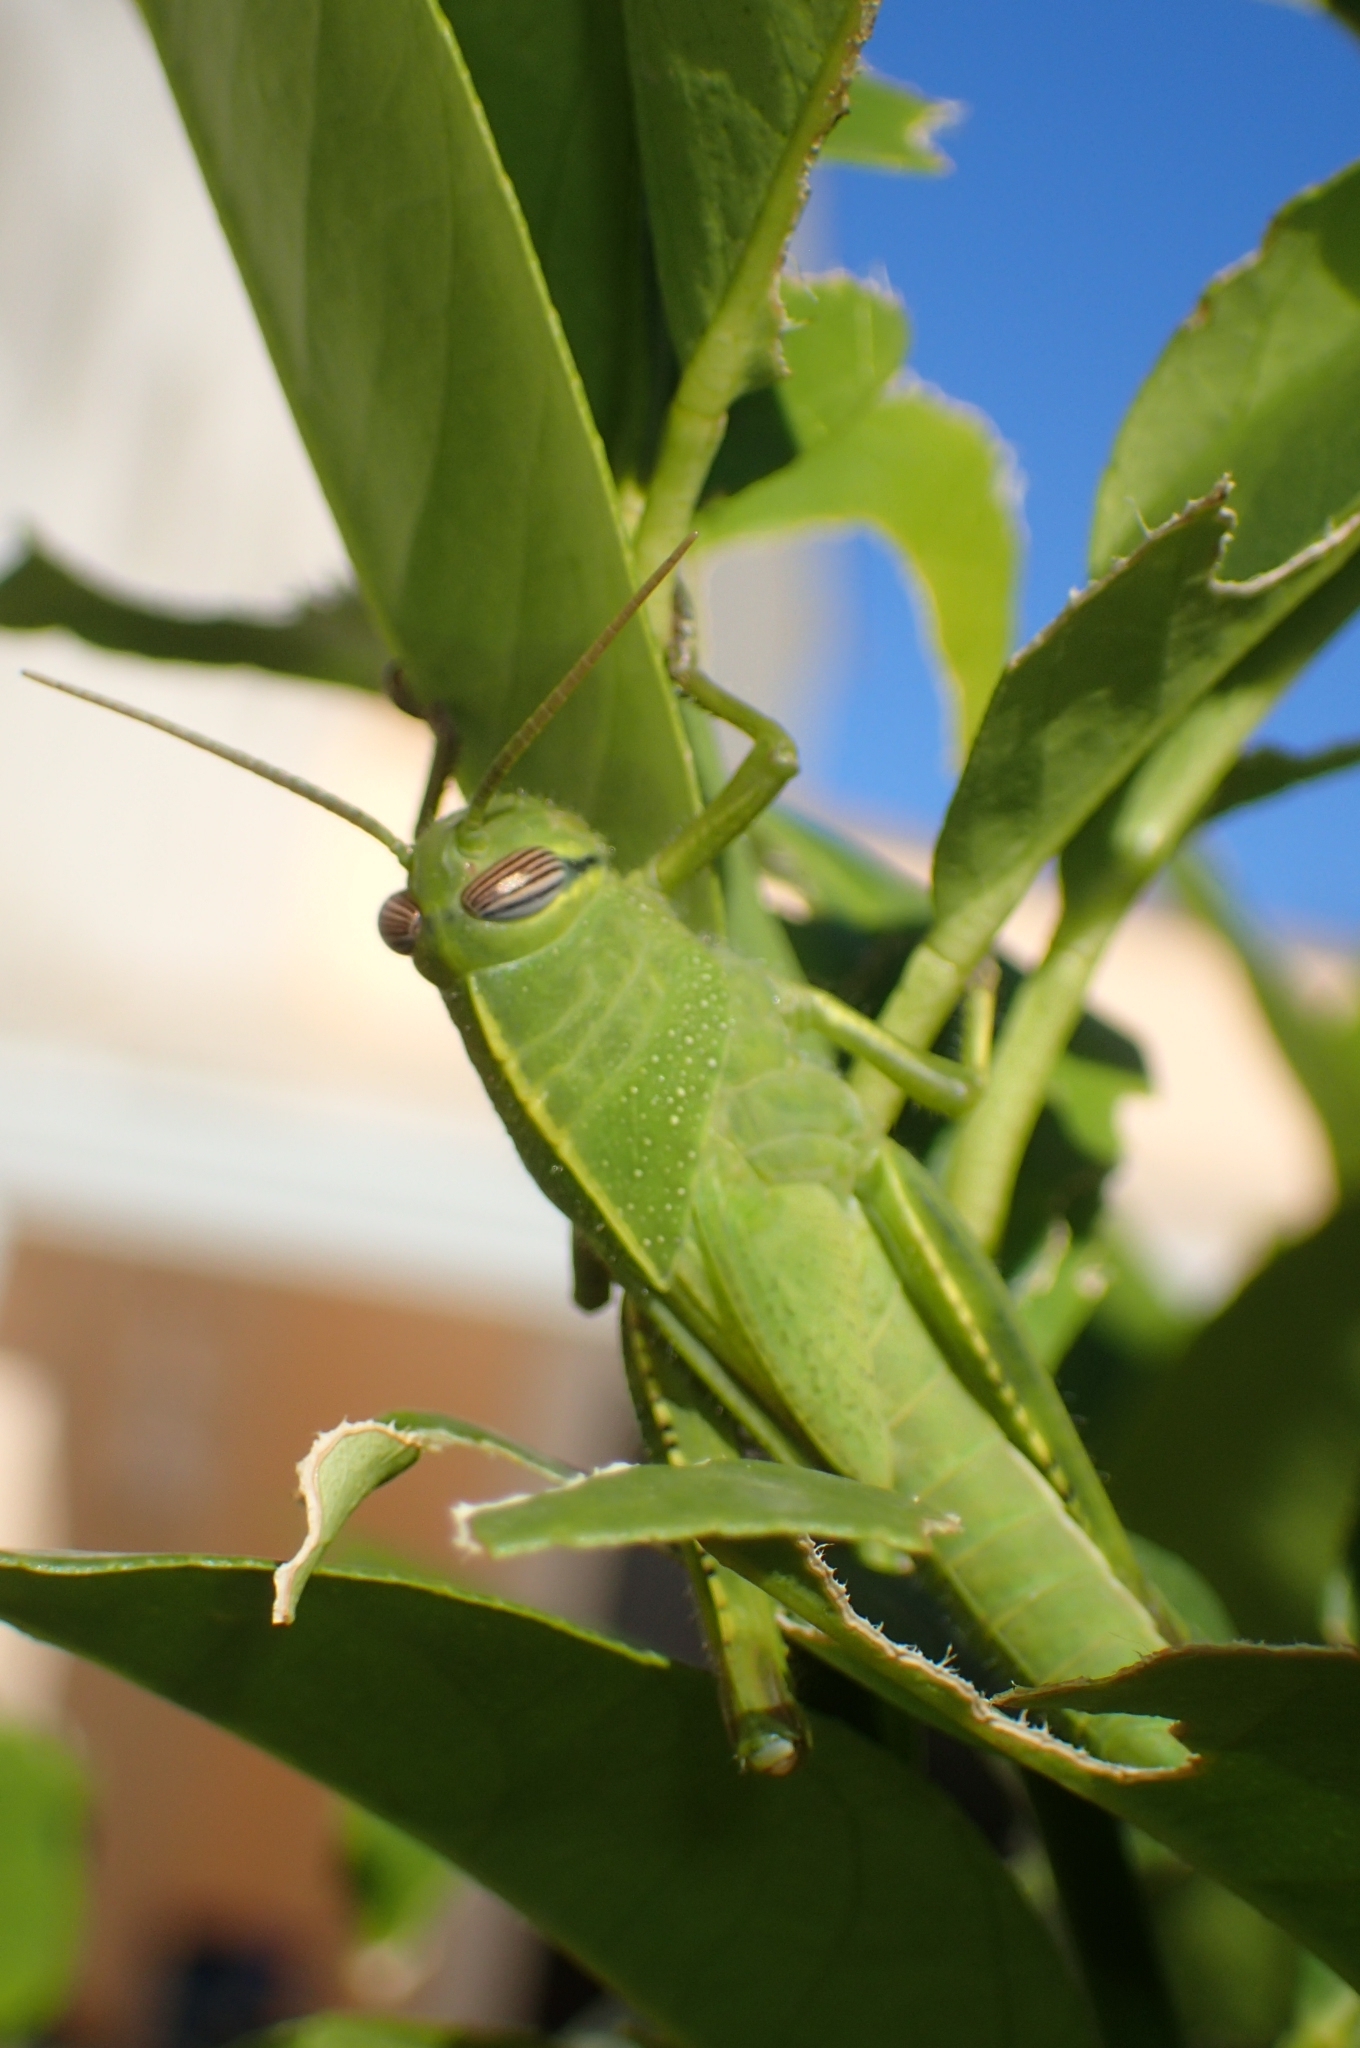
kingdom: Animalia
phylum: Arthropoda
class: Insecta
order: Orthoptera
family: Acrididae
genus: Anacridium
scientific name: Anacridium aegyptium
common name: Egyptian grasshopper
